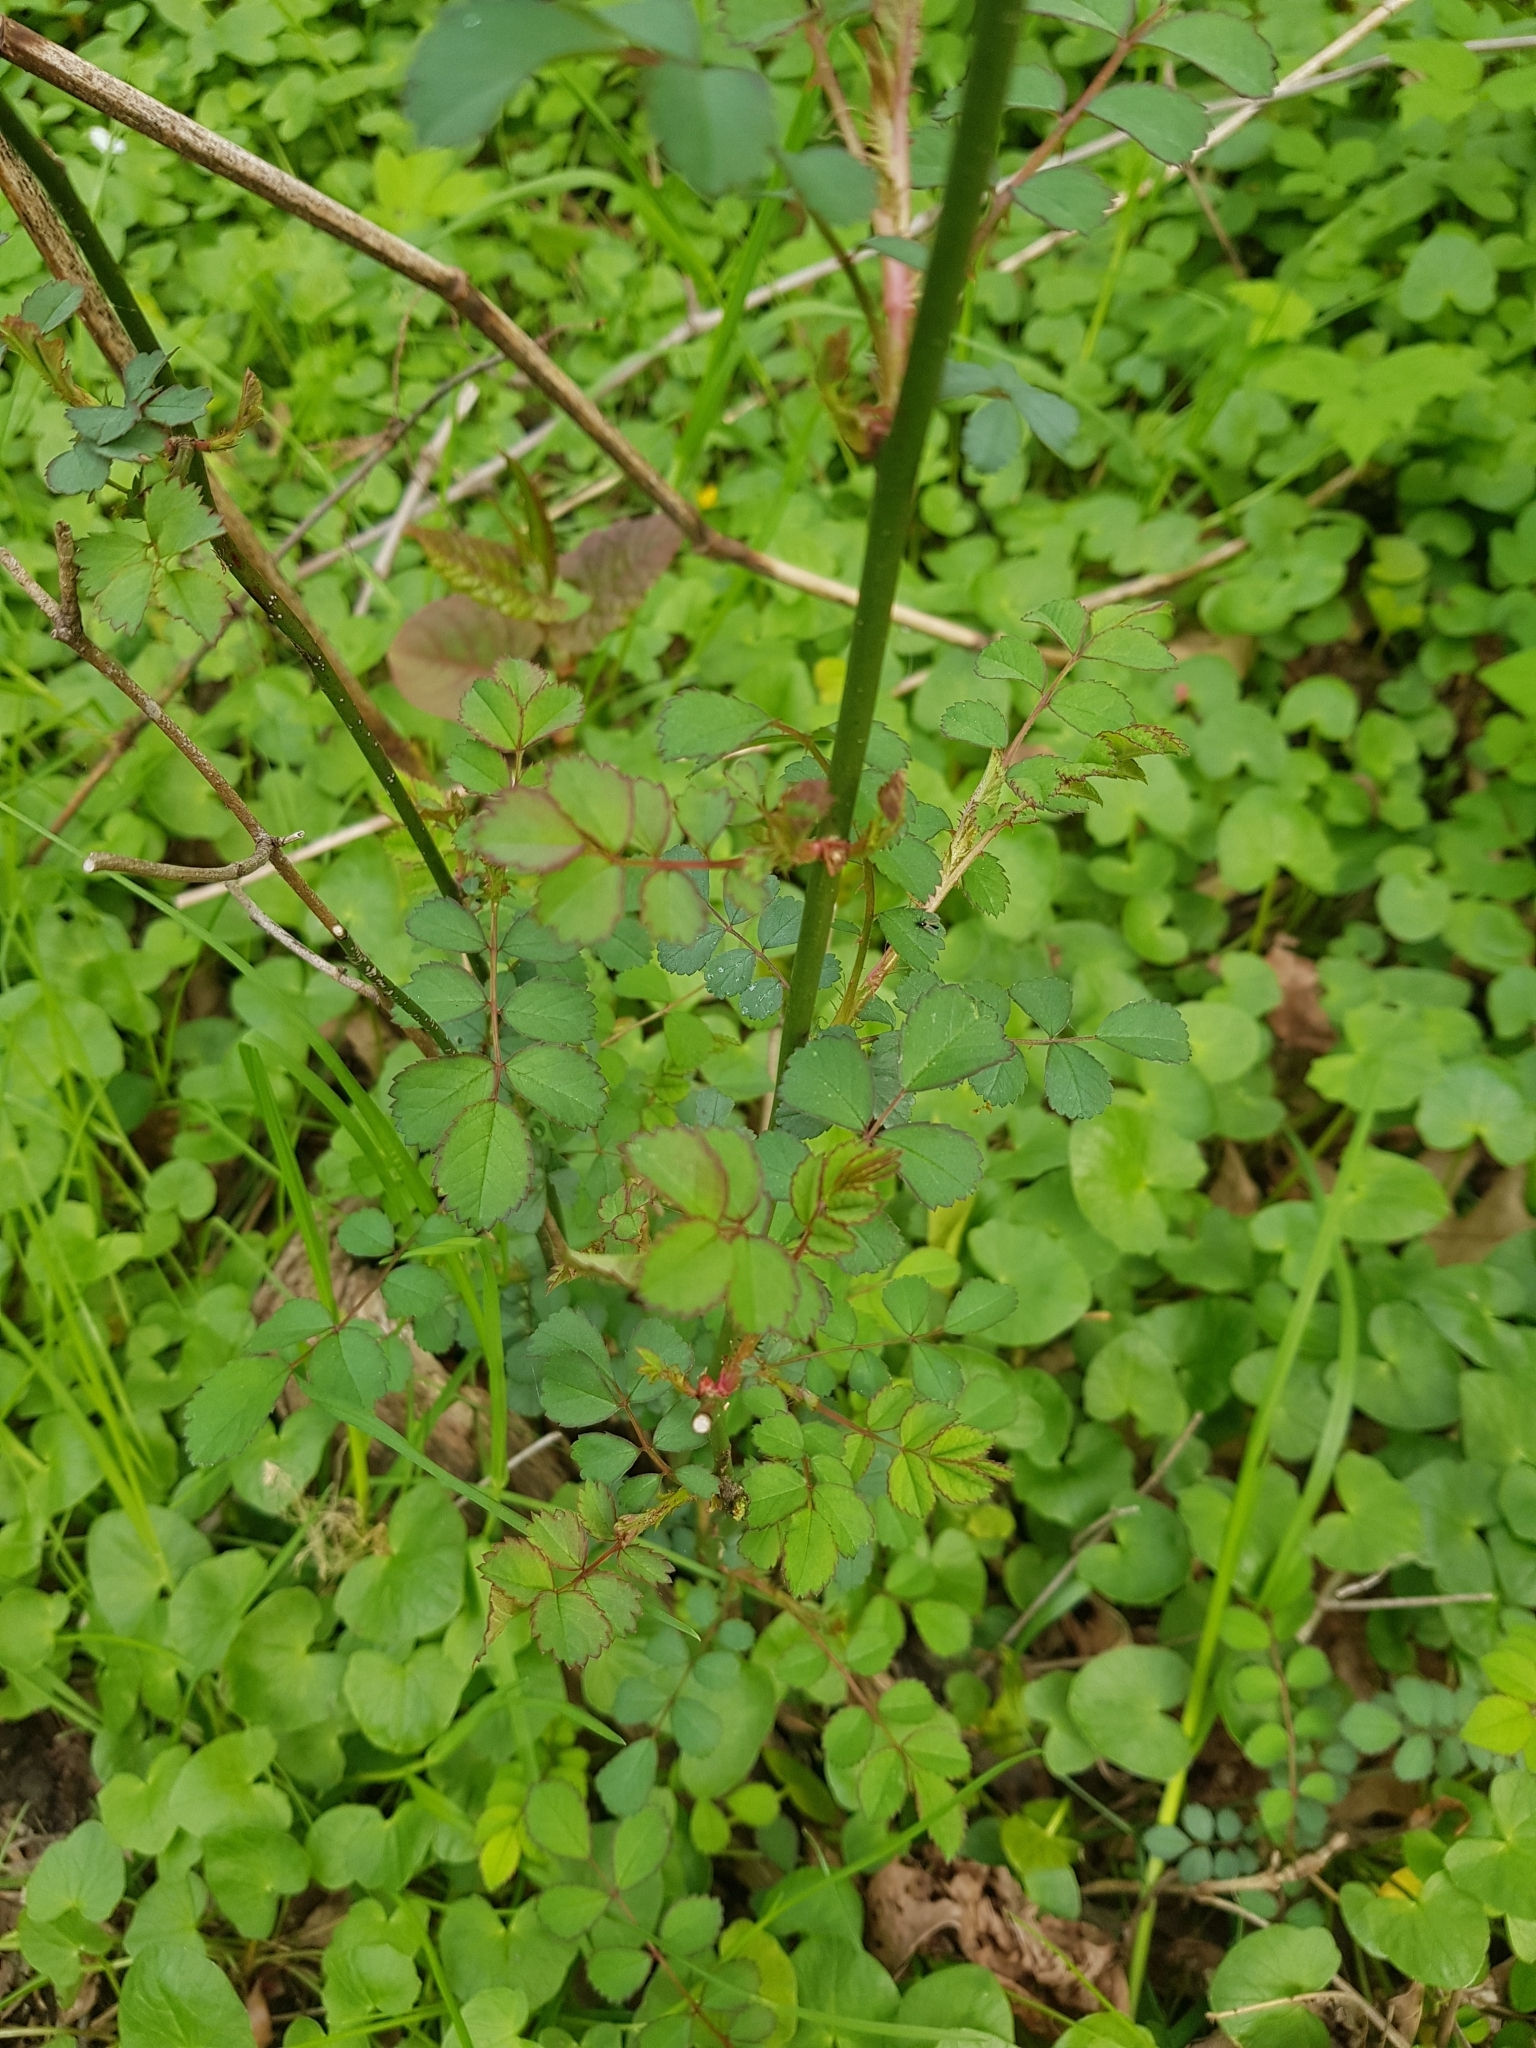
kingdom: Plantae
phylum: Tracheophyta
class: Magnoliopsida
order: Rosales
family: Rosaceae
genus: Rosa
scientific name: Rosa multiflora
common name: Multiflora rose
